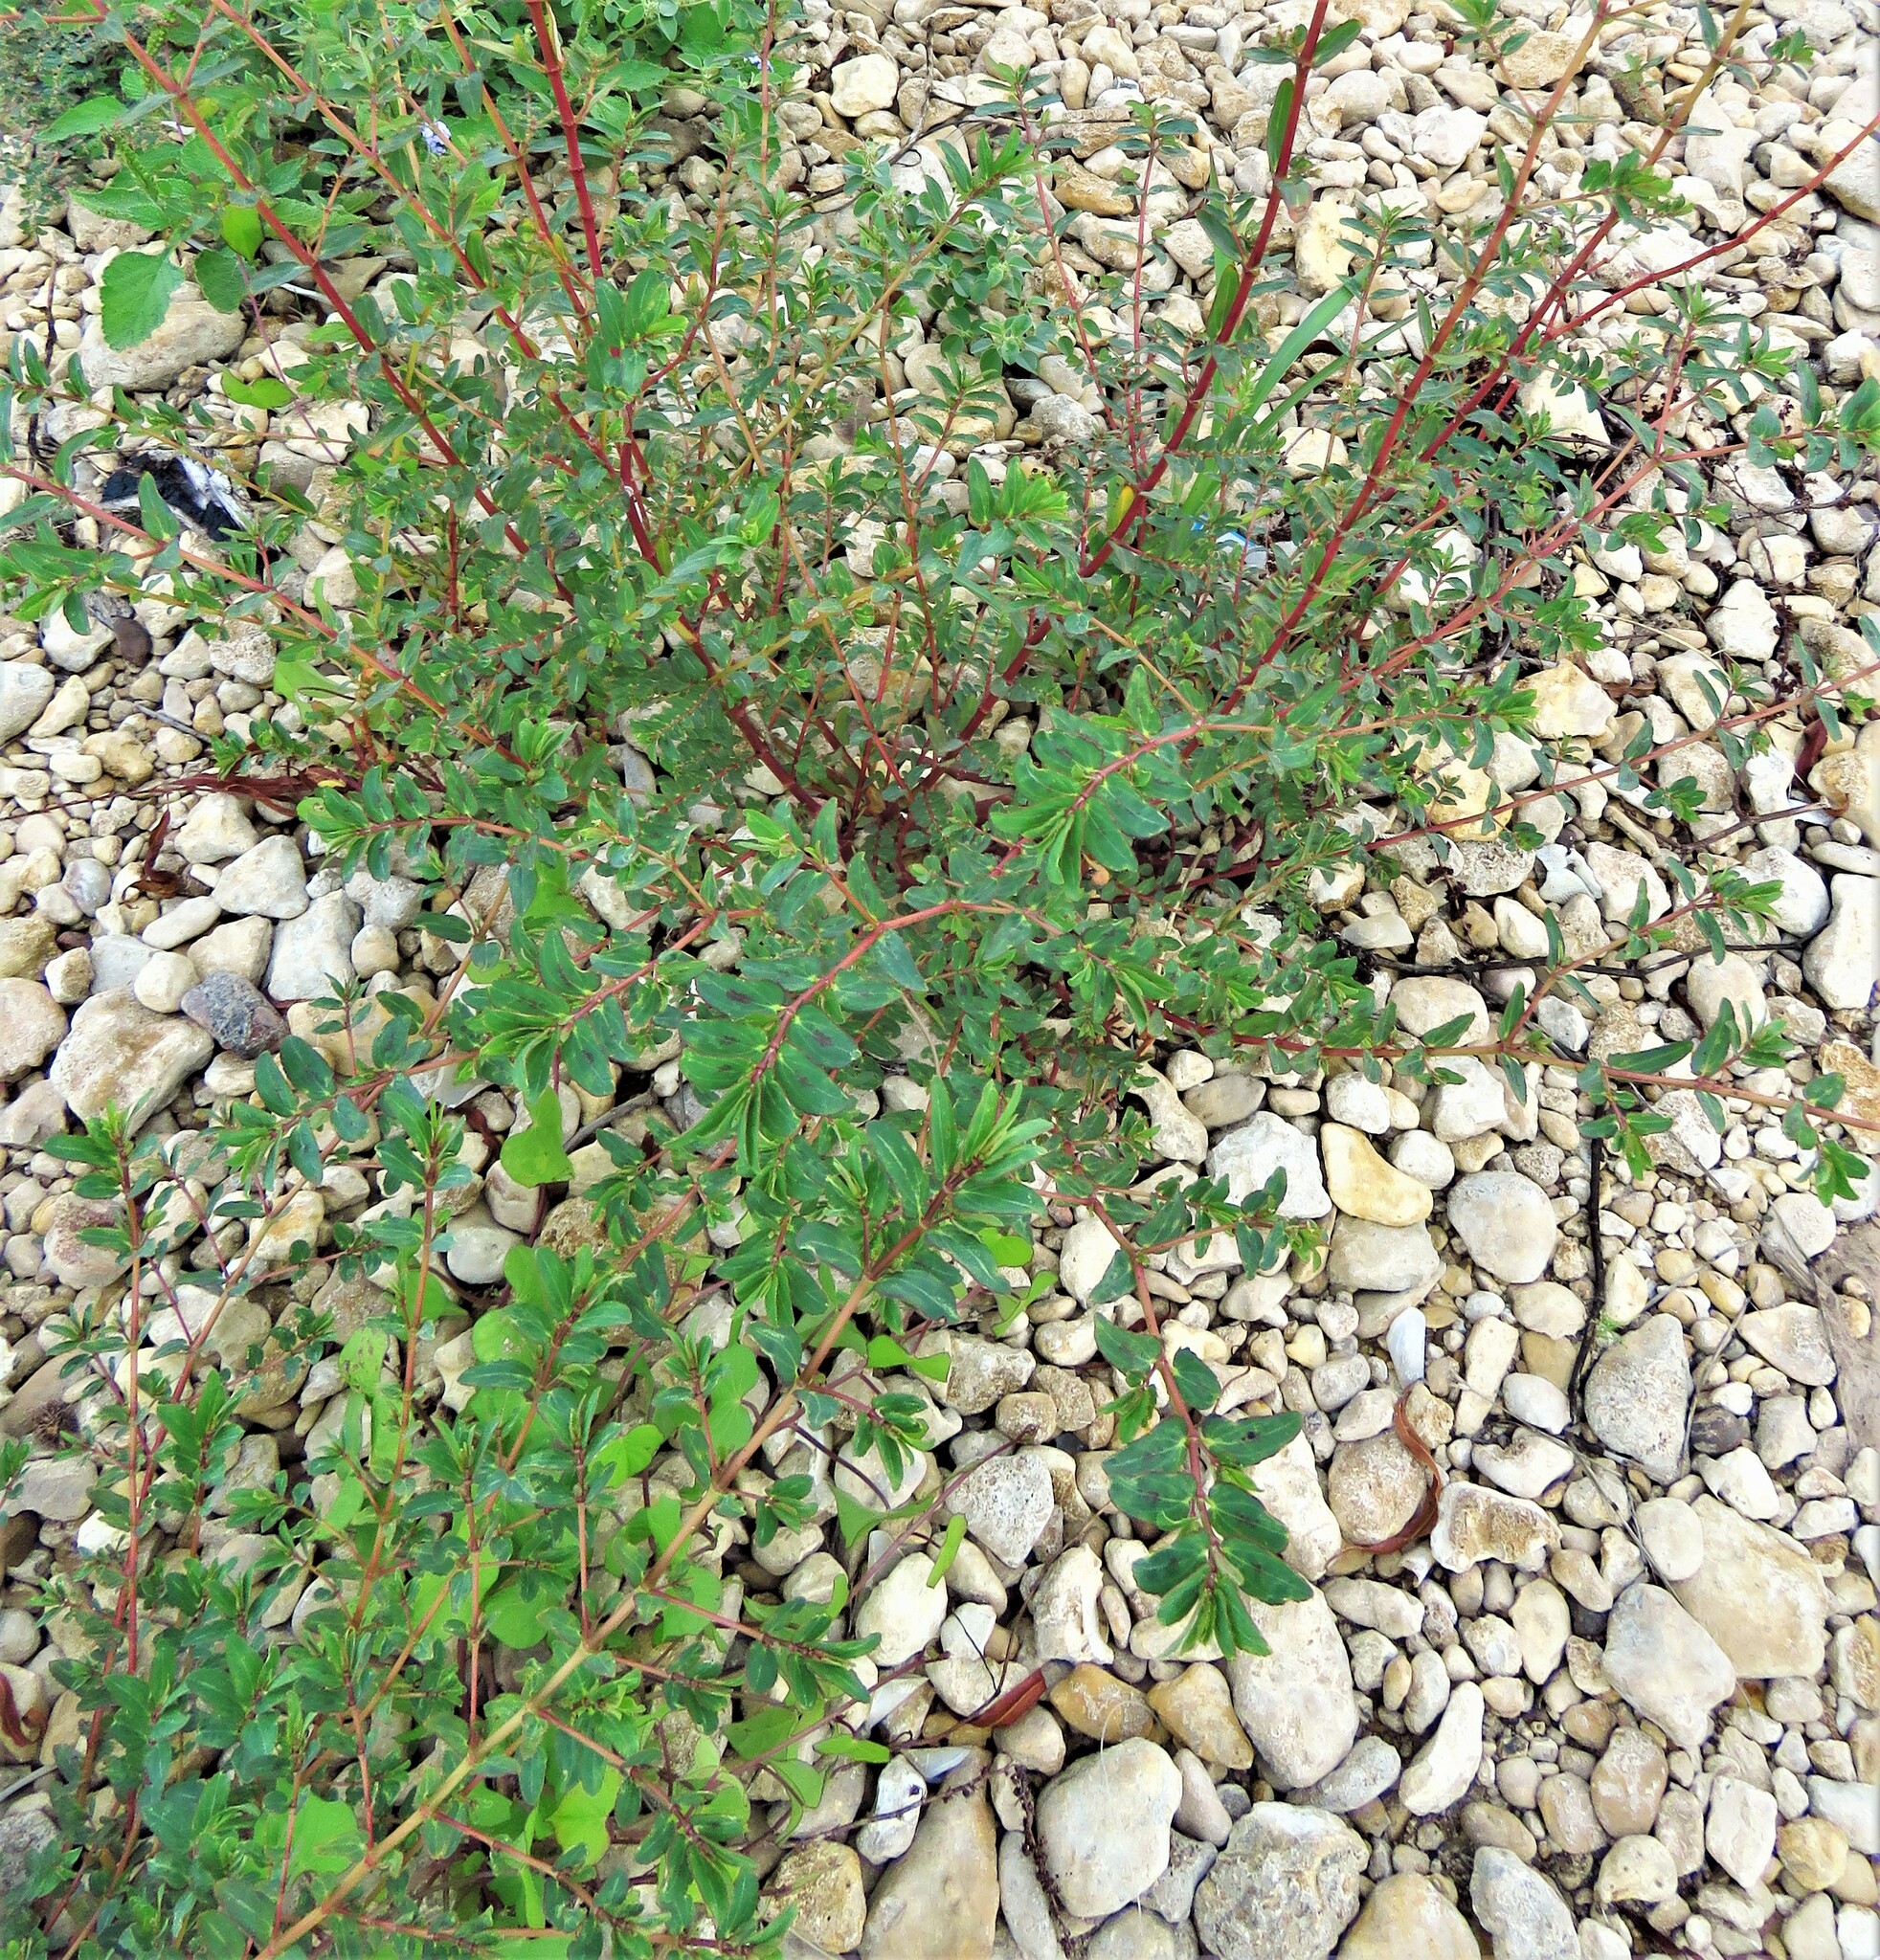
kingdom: Plantae
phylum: Tracheophyta
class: Magnoliopsida
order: Malpighiales
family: Euphorbiaceae
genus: Euphorbia
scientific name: Euphorbia nutans
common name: Eyebane
